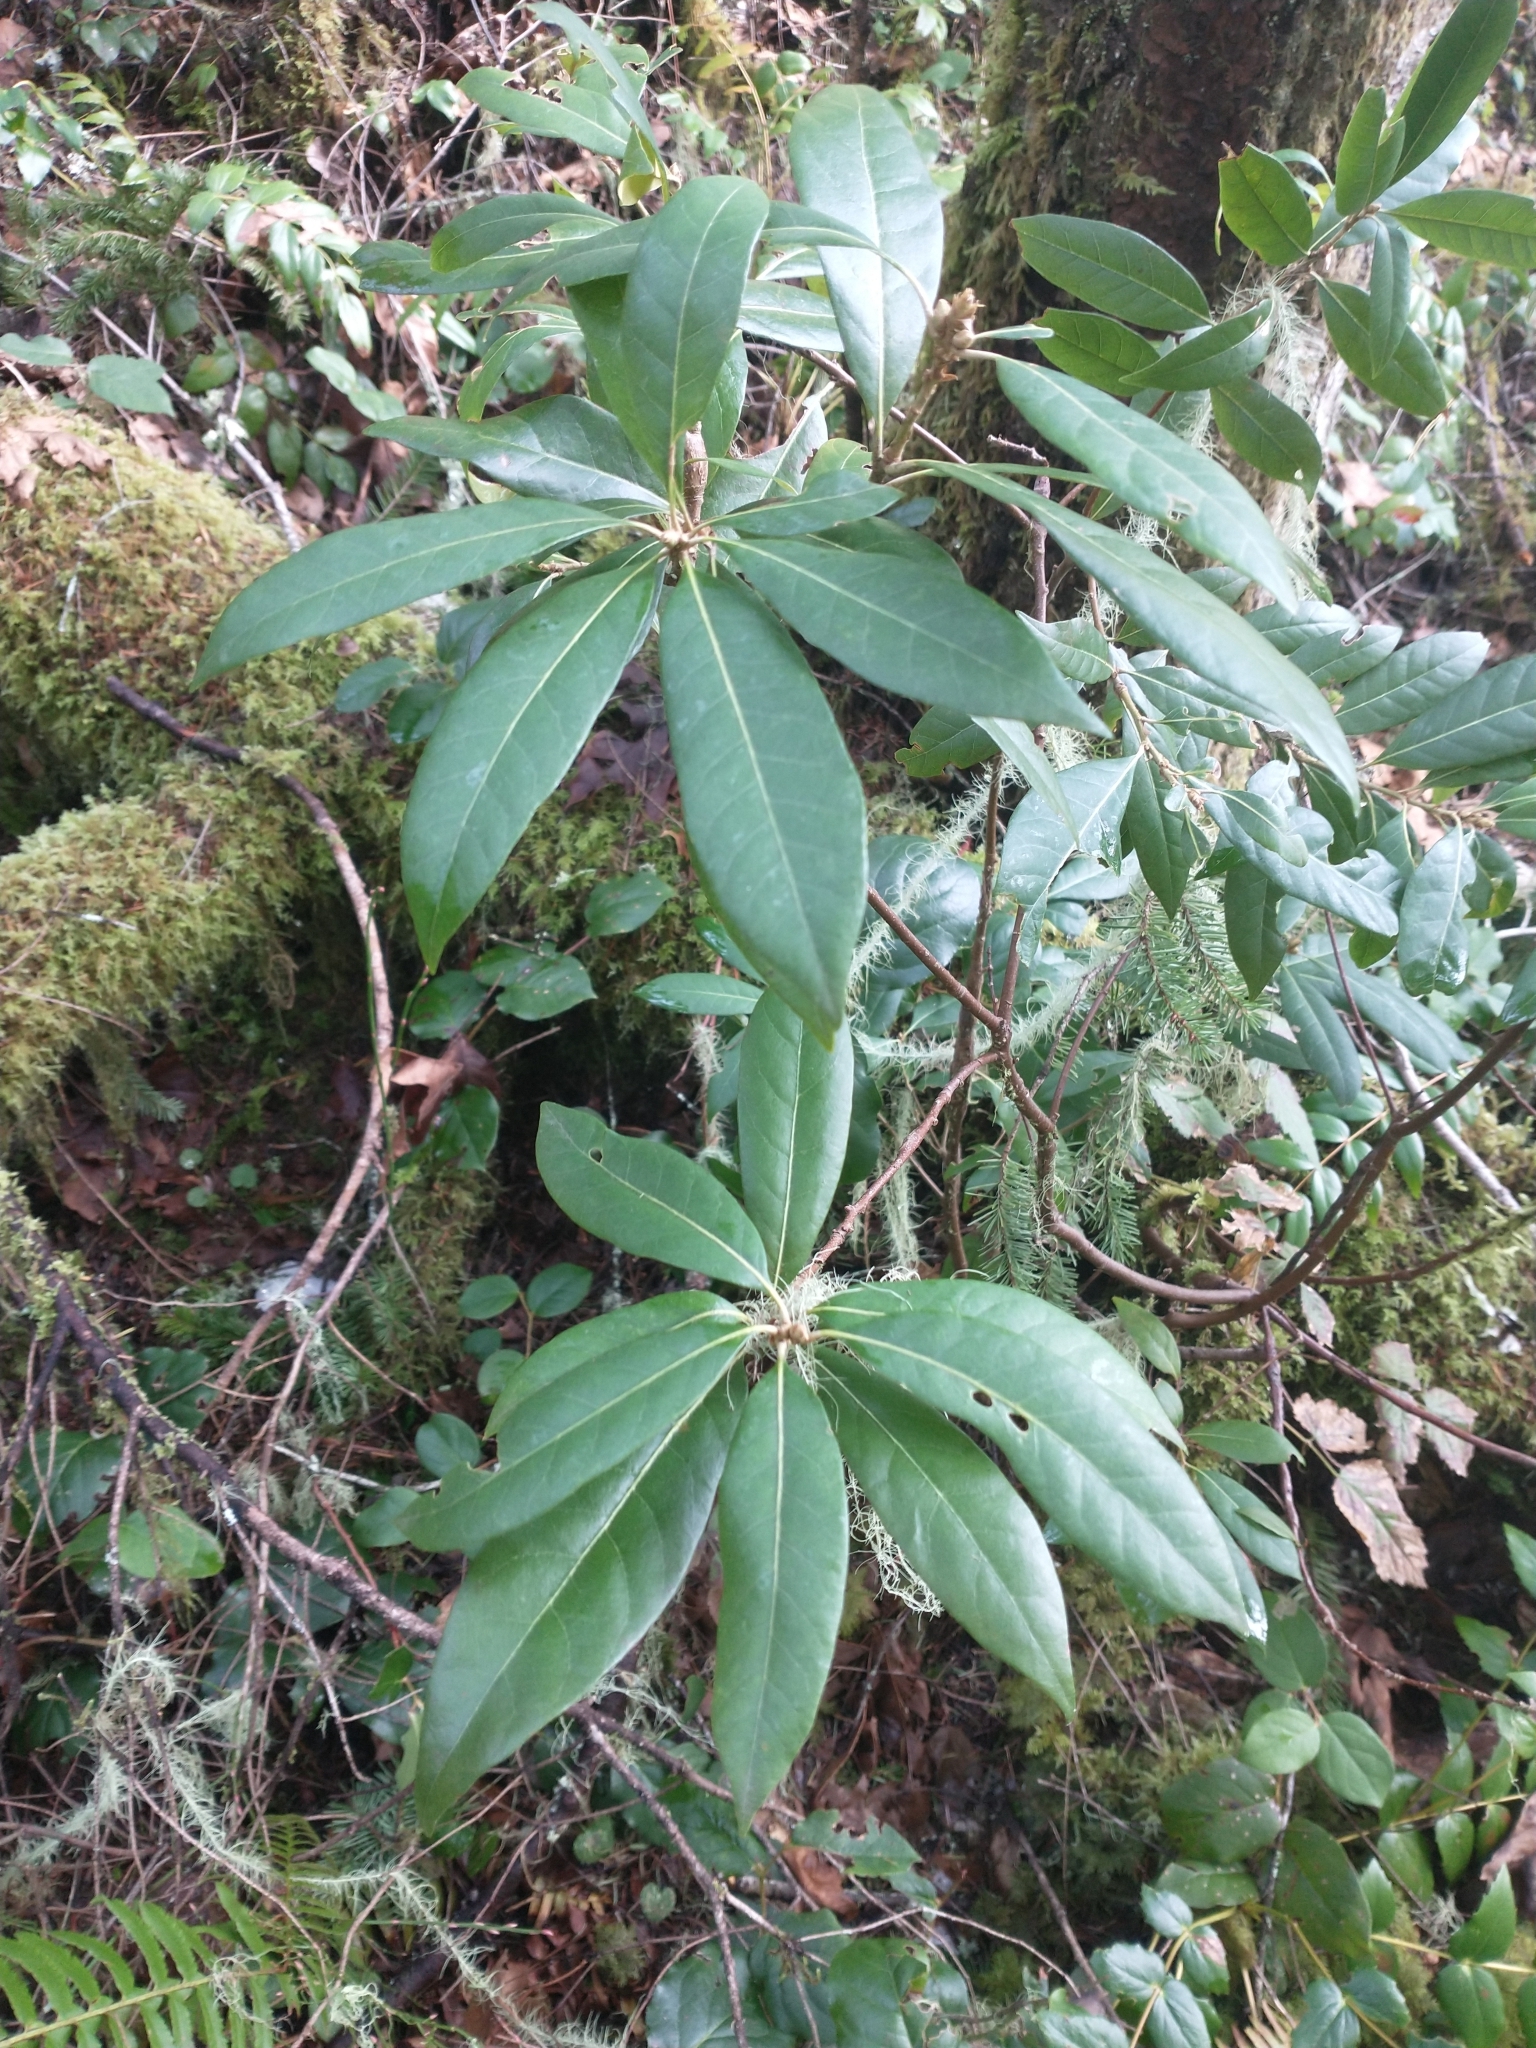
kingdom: Plantae
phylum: Tracheophyta
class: Magnoliopsida
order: Fagales
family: Fagaceae
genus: Chrysolepis
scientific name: Chrysolepis chrysophylla
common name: Giant chinquapin
